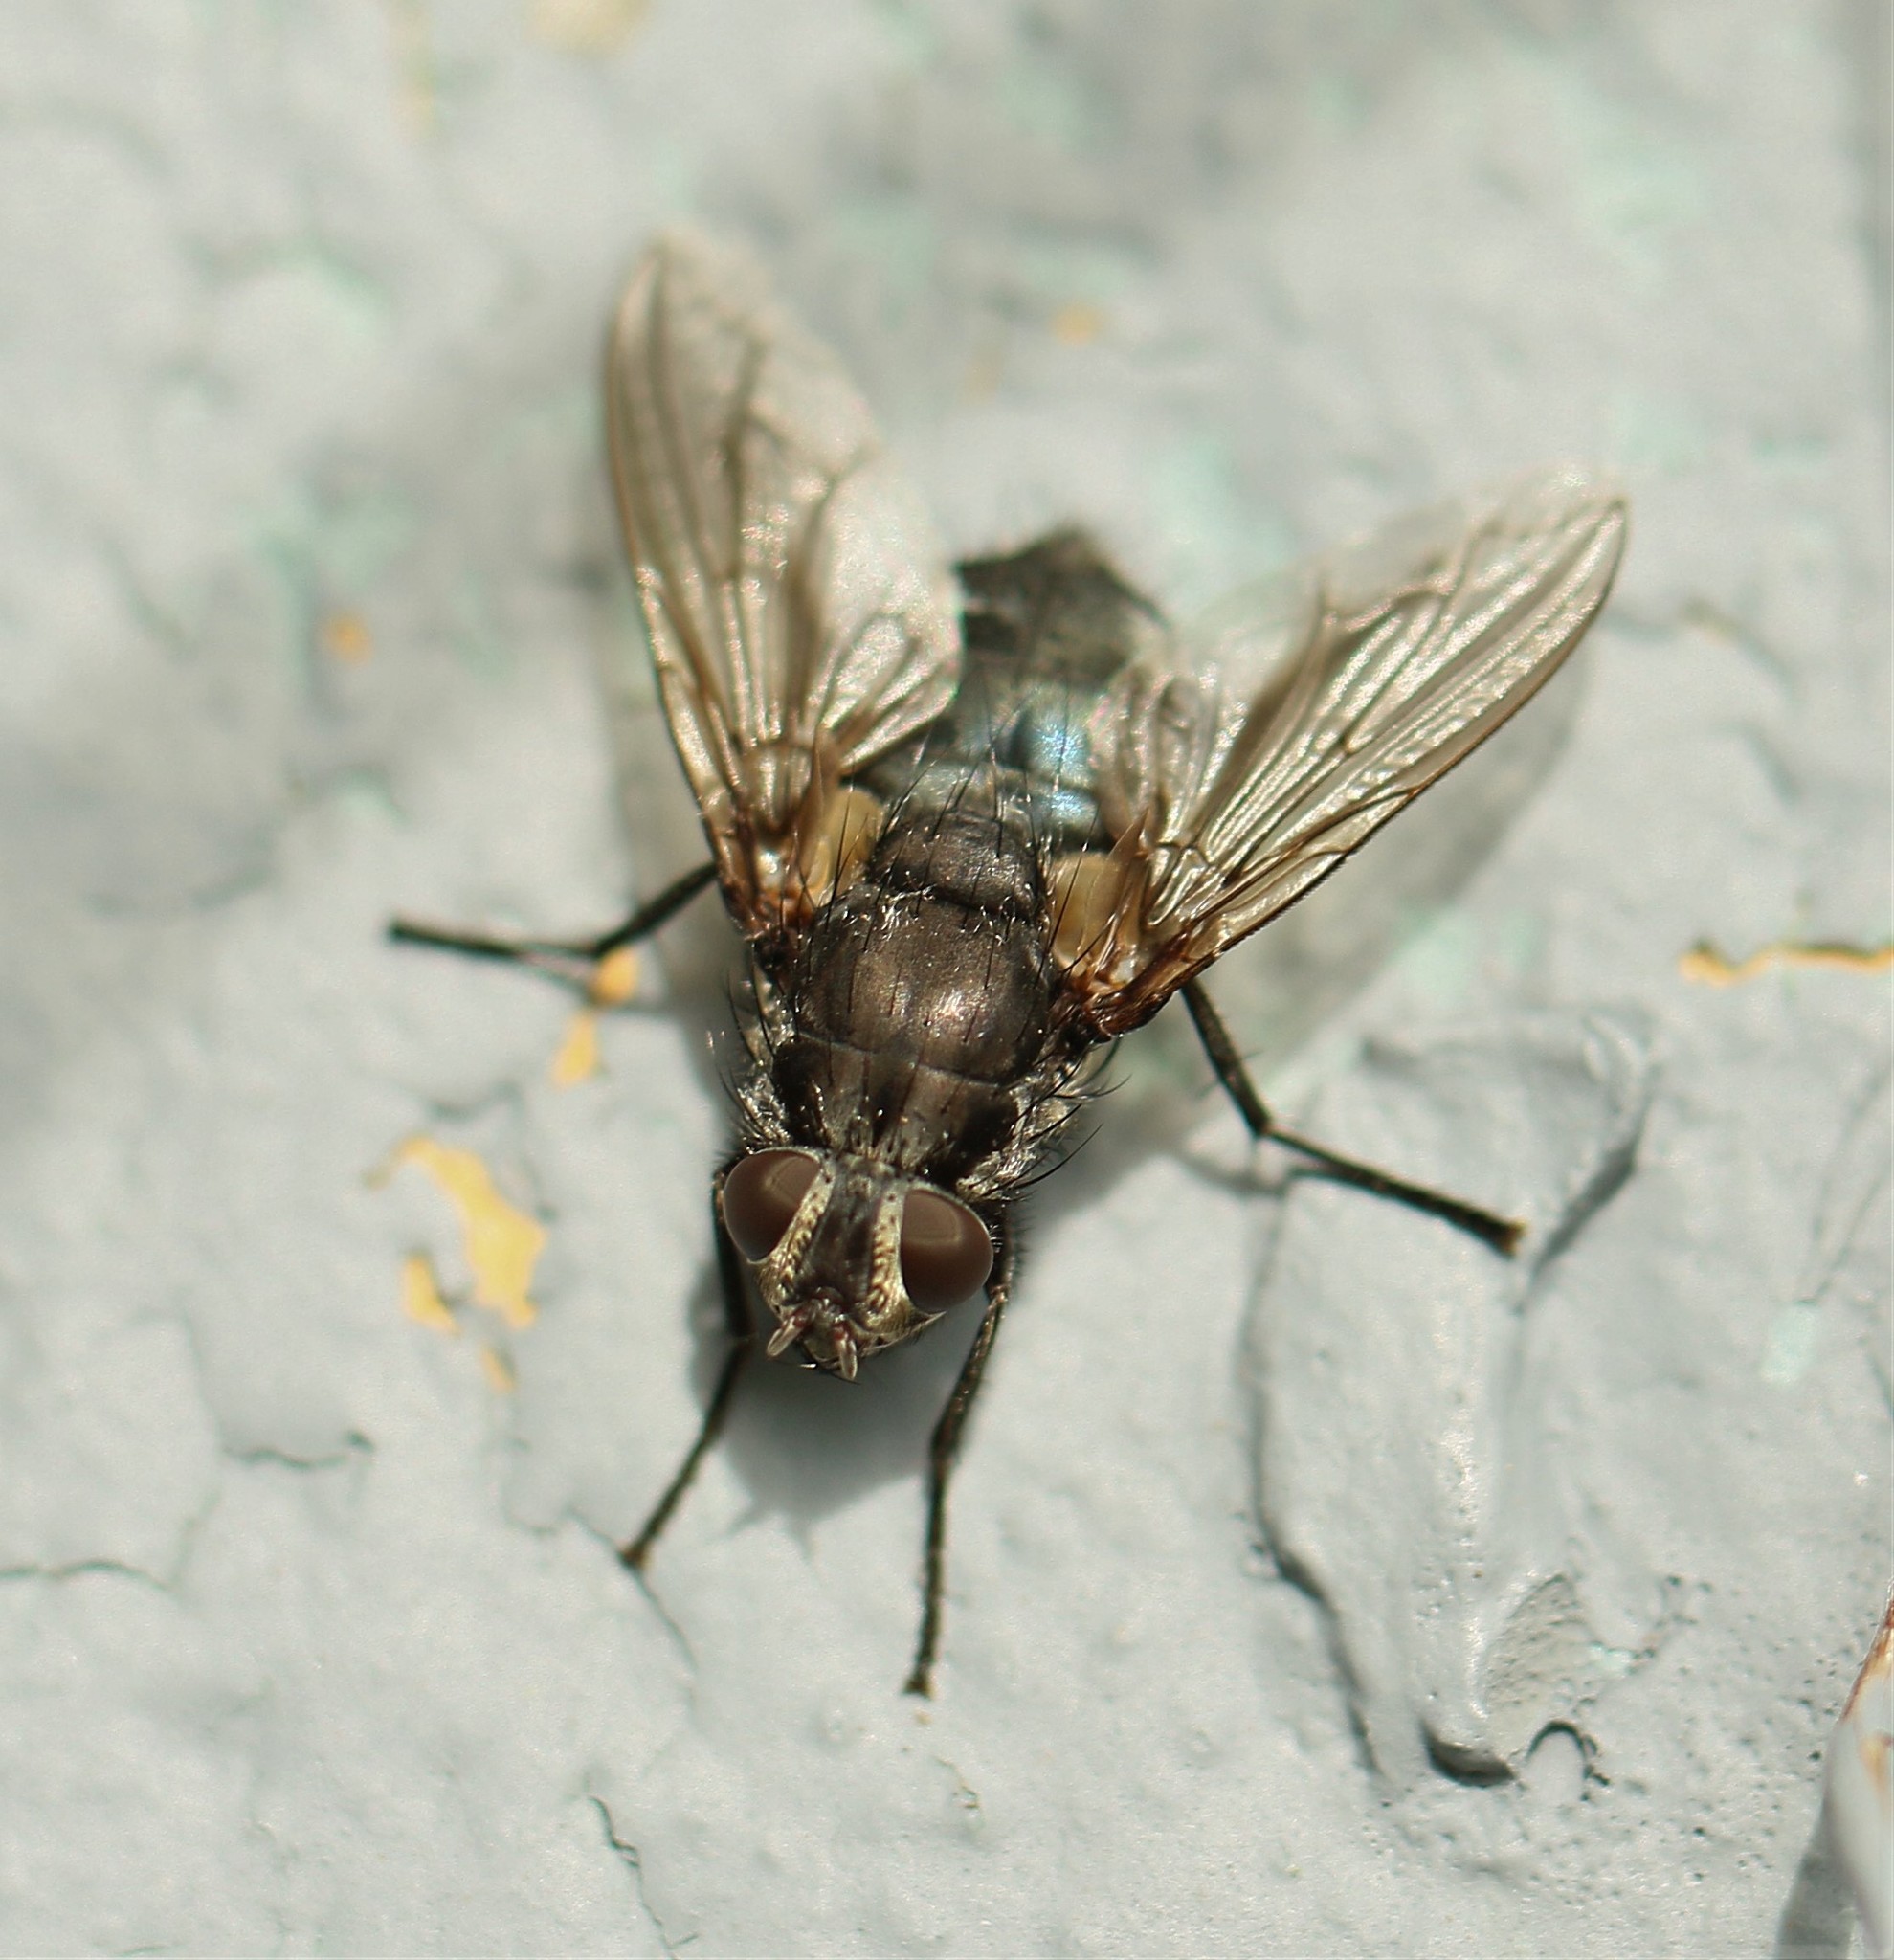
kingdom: Animalia
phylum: Arthropoda
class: Insecta
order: Diptera
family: Polleniidae
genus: Pollenia
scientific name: Pollenia vagabunda
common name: Vagabund cluster fly
